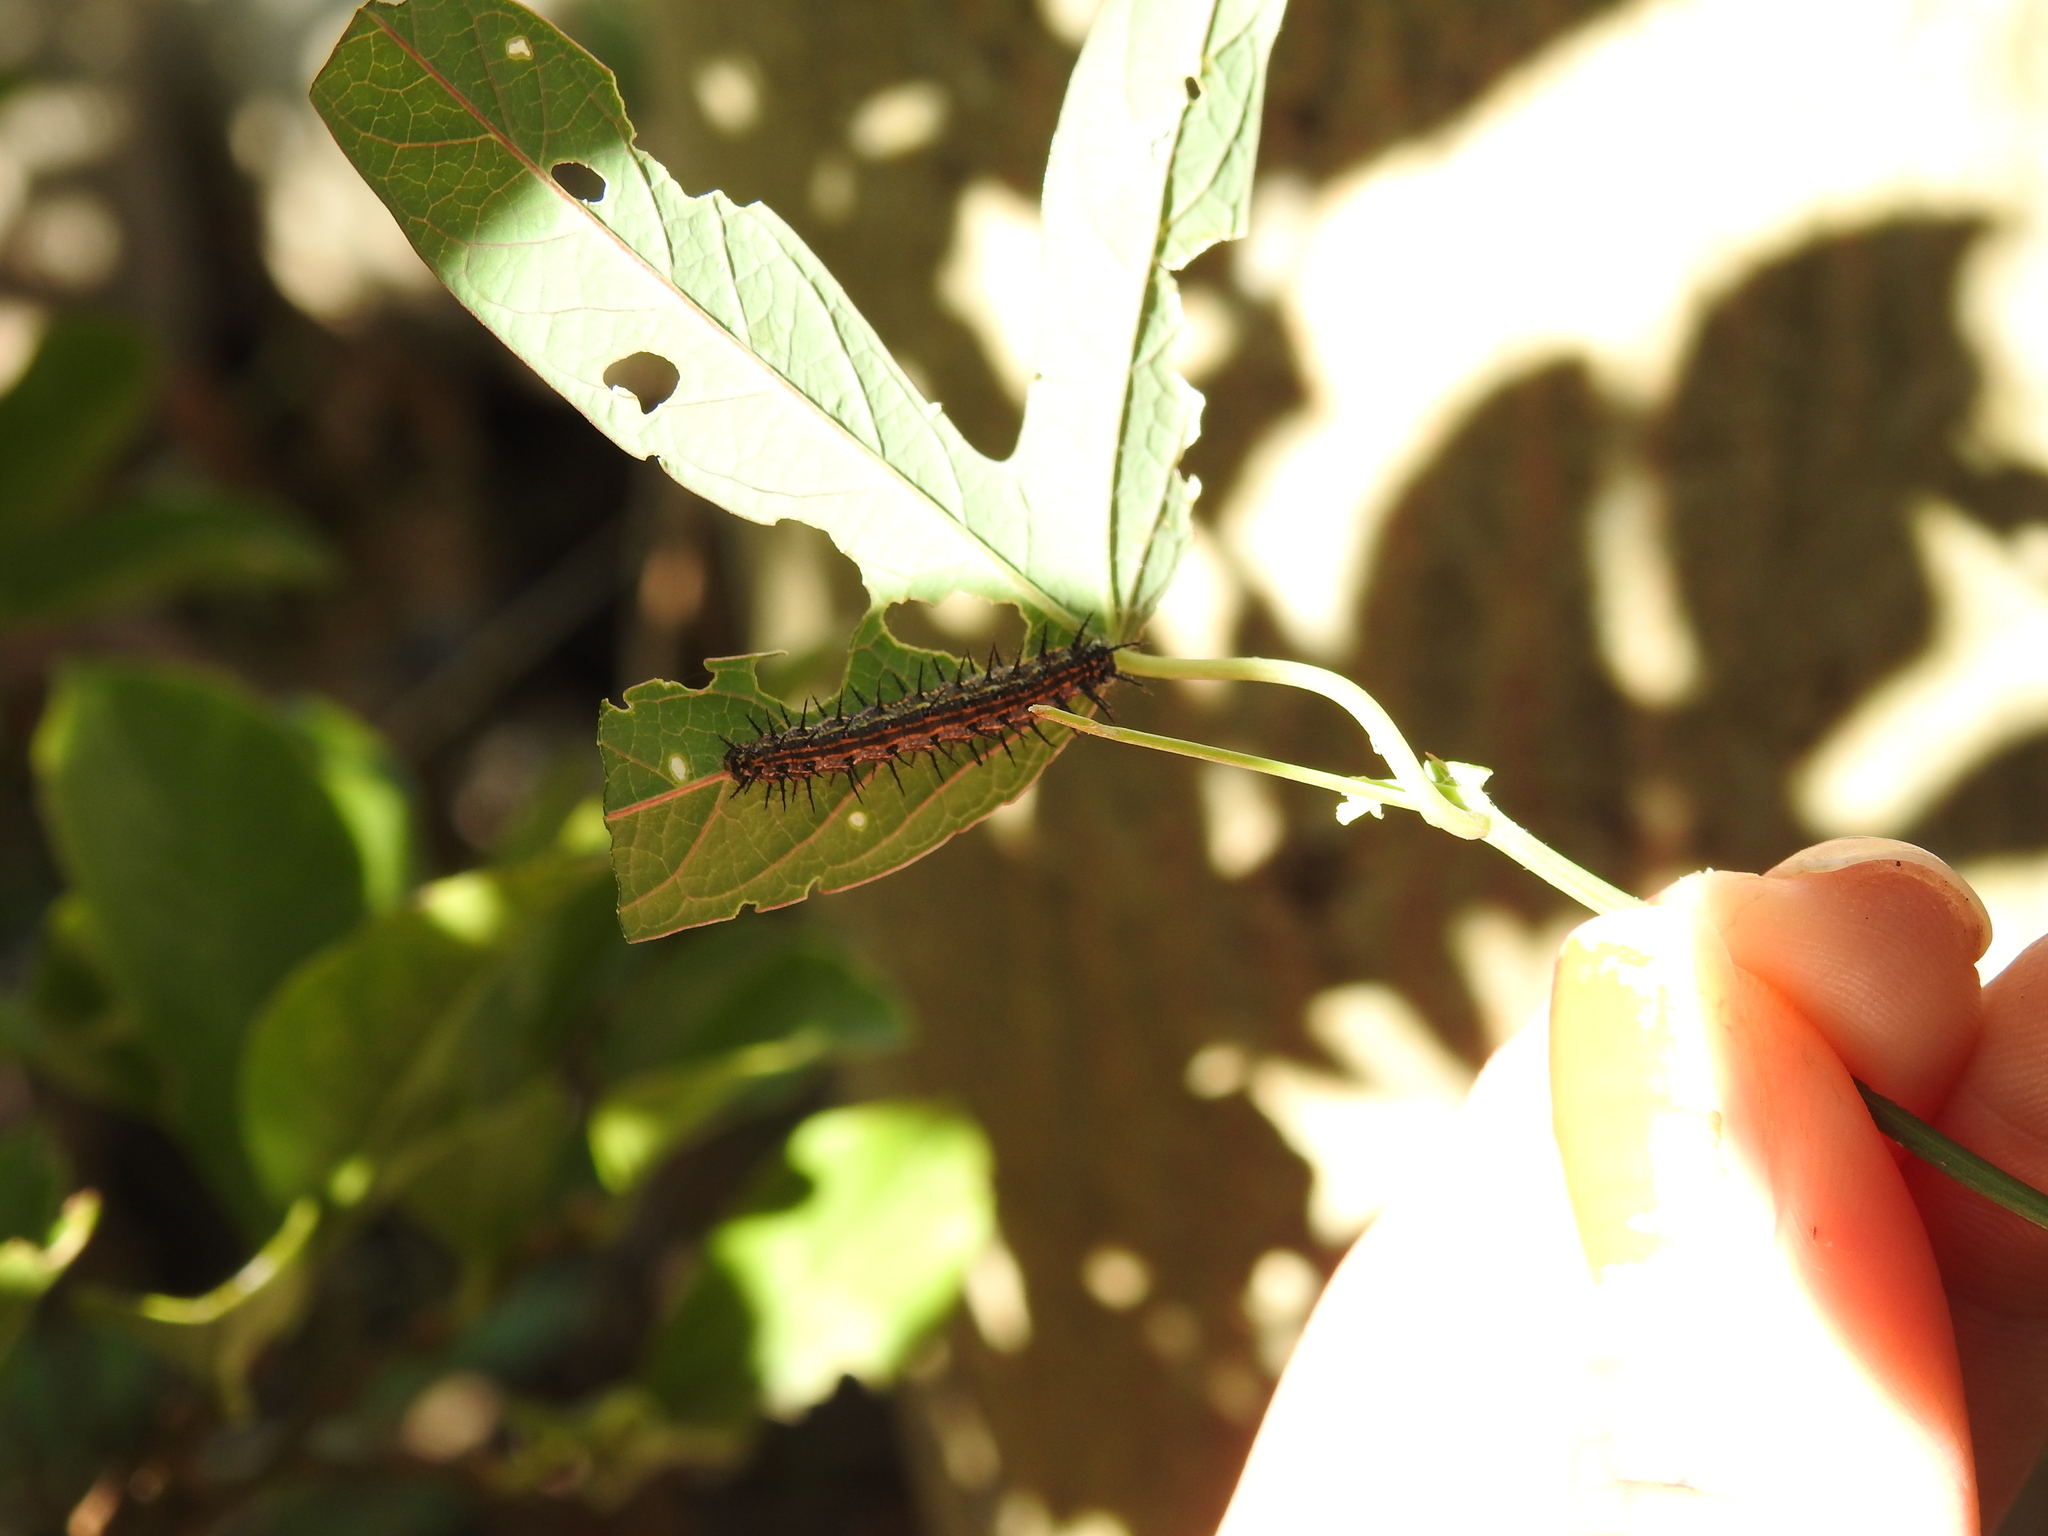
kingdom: Animalia
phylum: Arthropoda
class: Insecta
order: Lepidoptera
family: Nymphalidae
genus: Dione
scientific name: Dione vanillae
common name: Gulf fritillary
